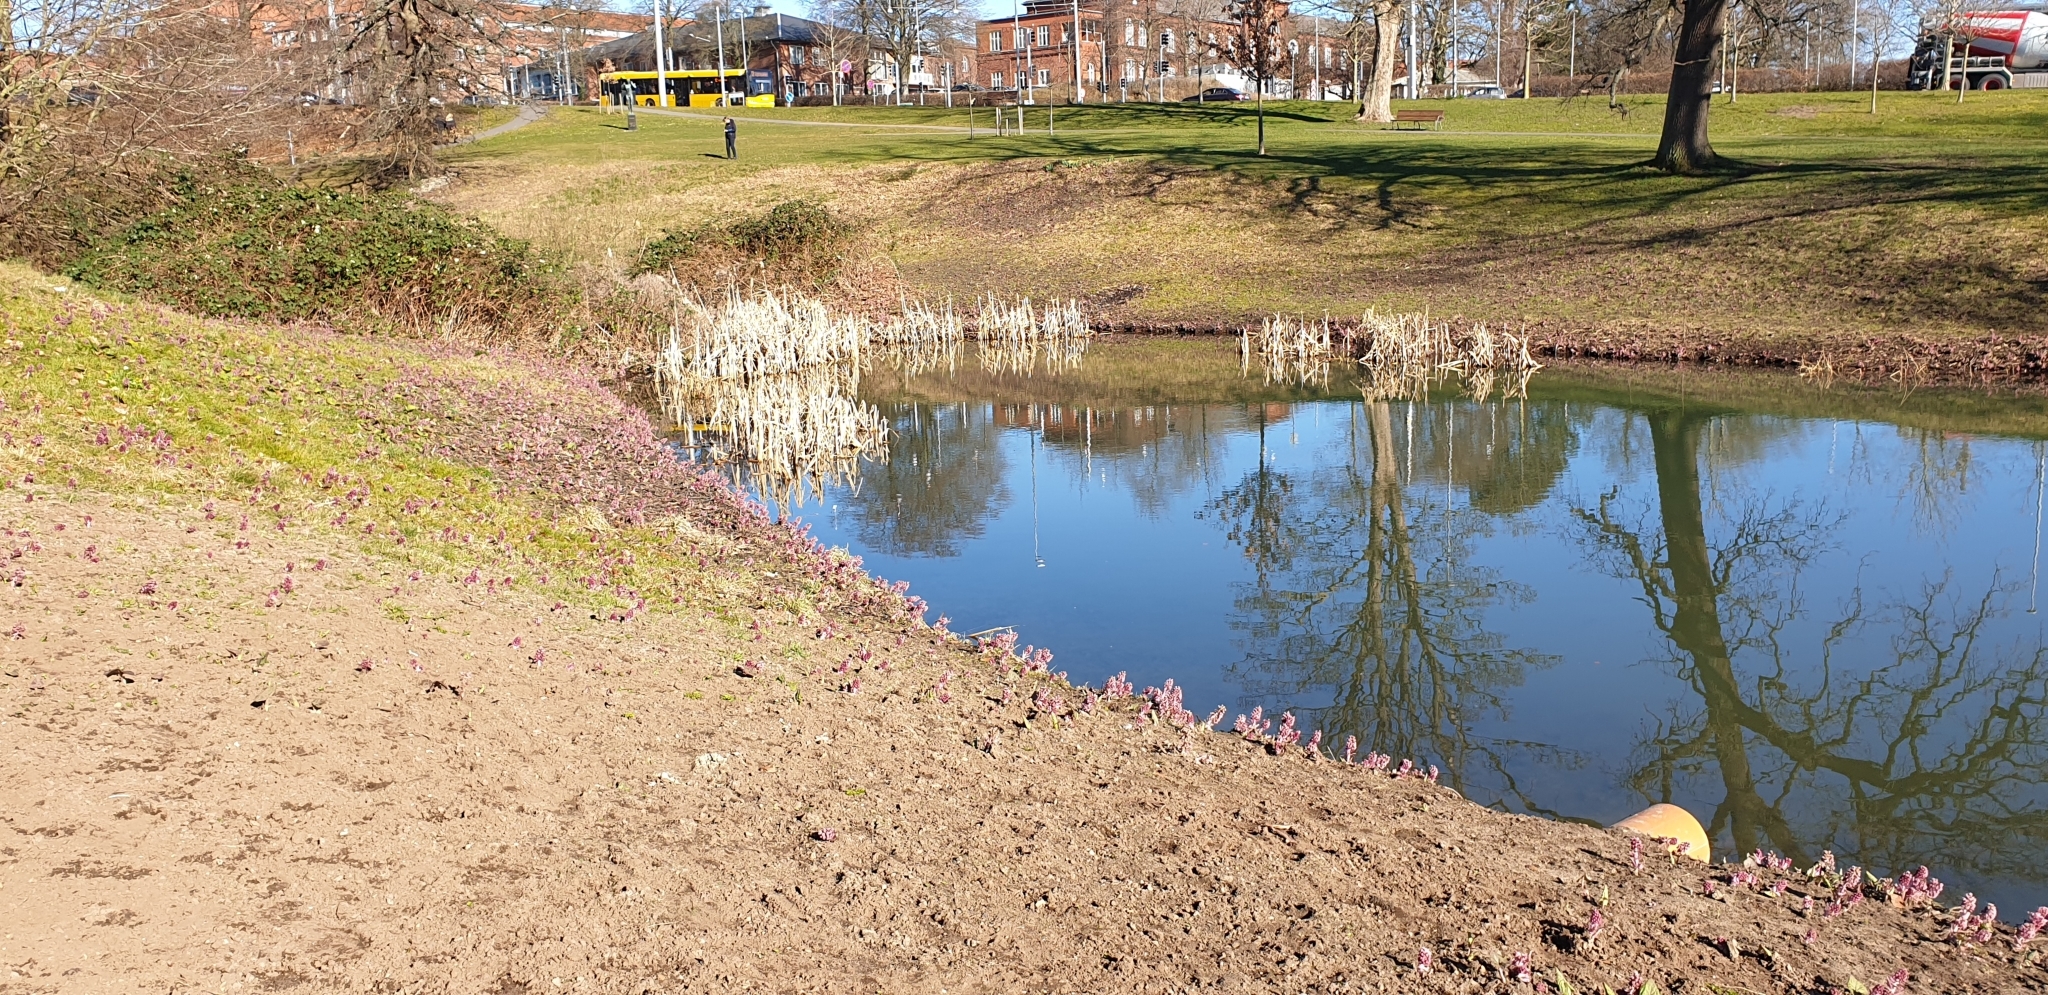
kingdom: Plantae
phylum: Tracheophyta
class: Magnoliopsida
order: Asterales
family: Asteraceae
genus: Petasites
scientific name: Petasites hybridus
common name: Butterbur
